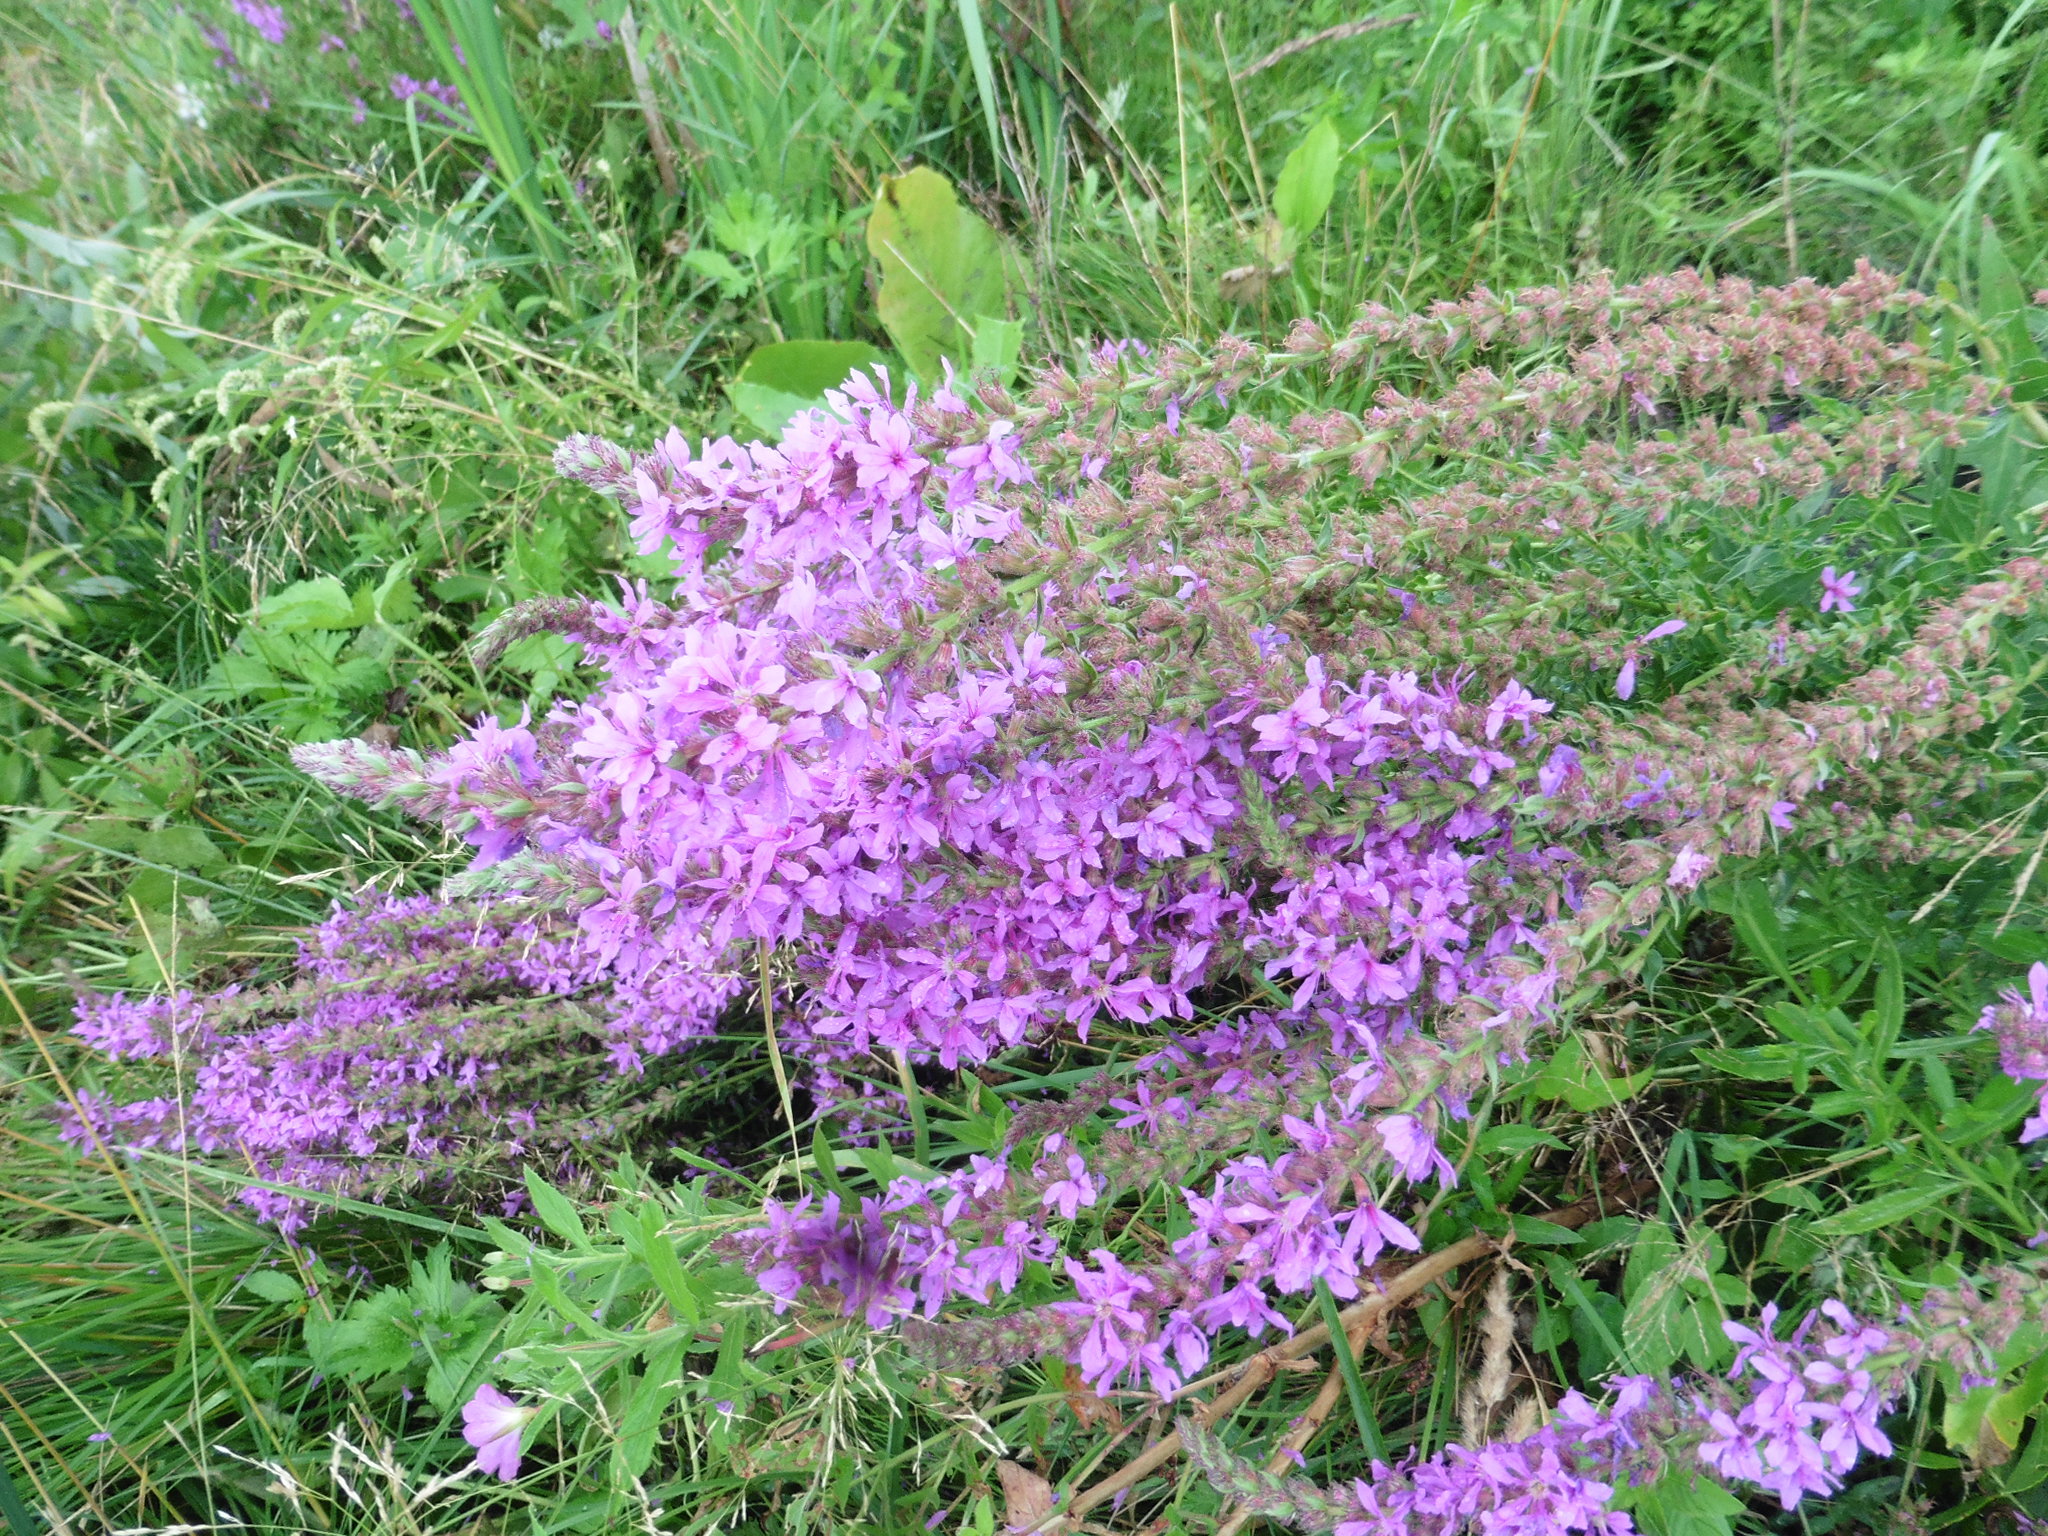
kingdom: Plantae
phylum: Tracheophyta
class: Magnoliopsida
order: Myrtales
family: Lythraceae
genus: Lythrum
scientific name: Lythrum salicaria
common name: Purple loosestrife
